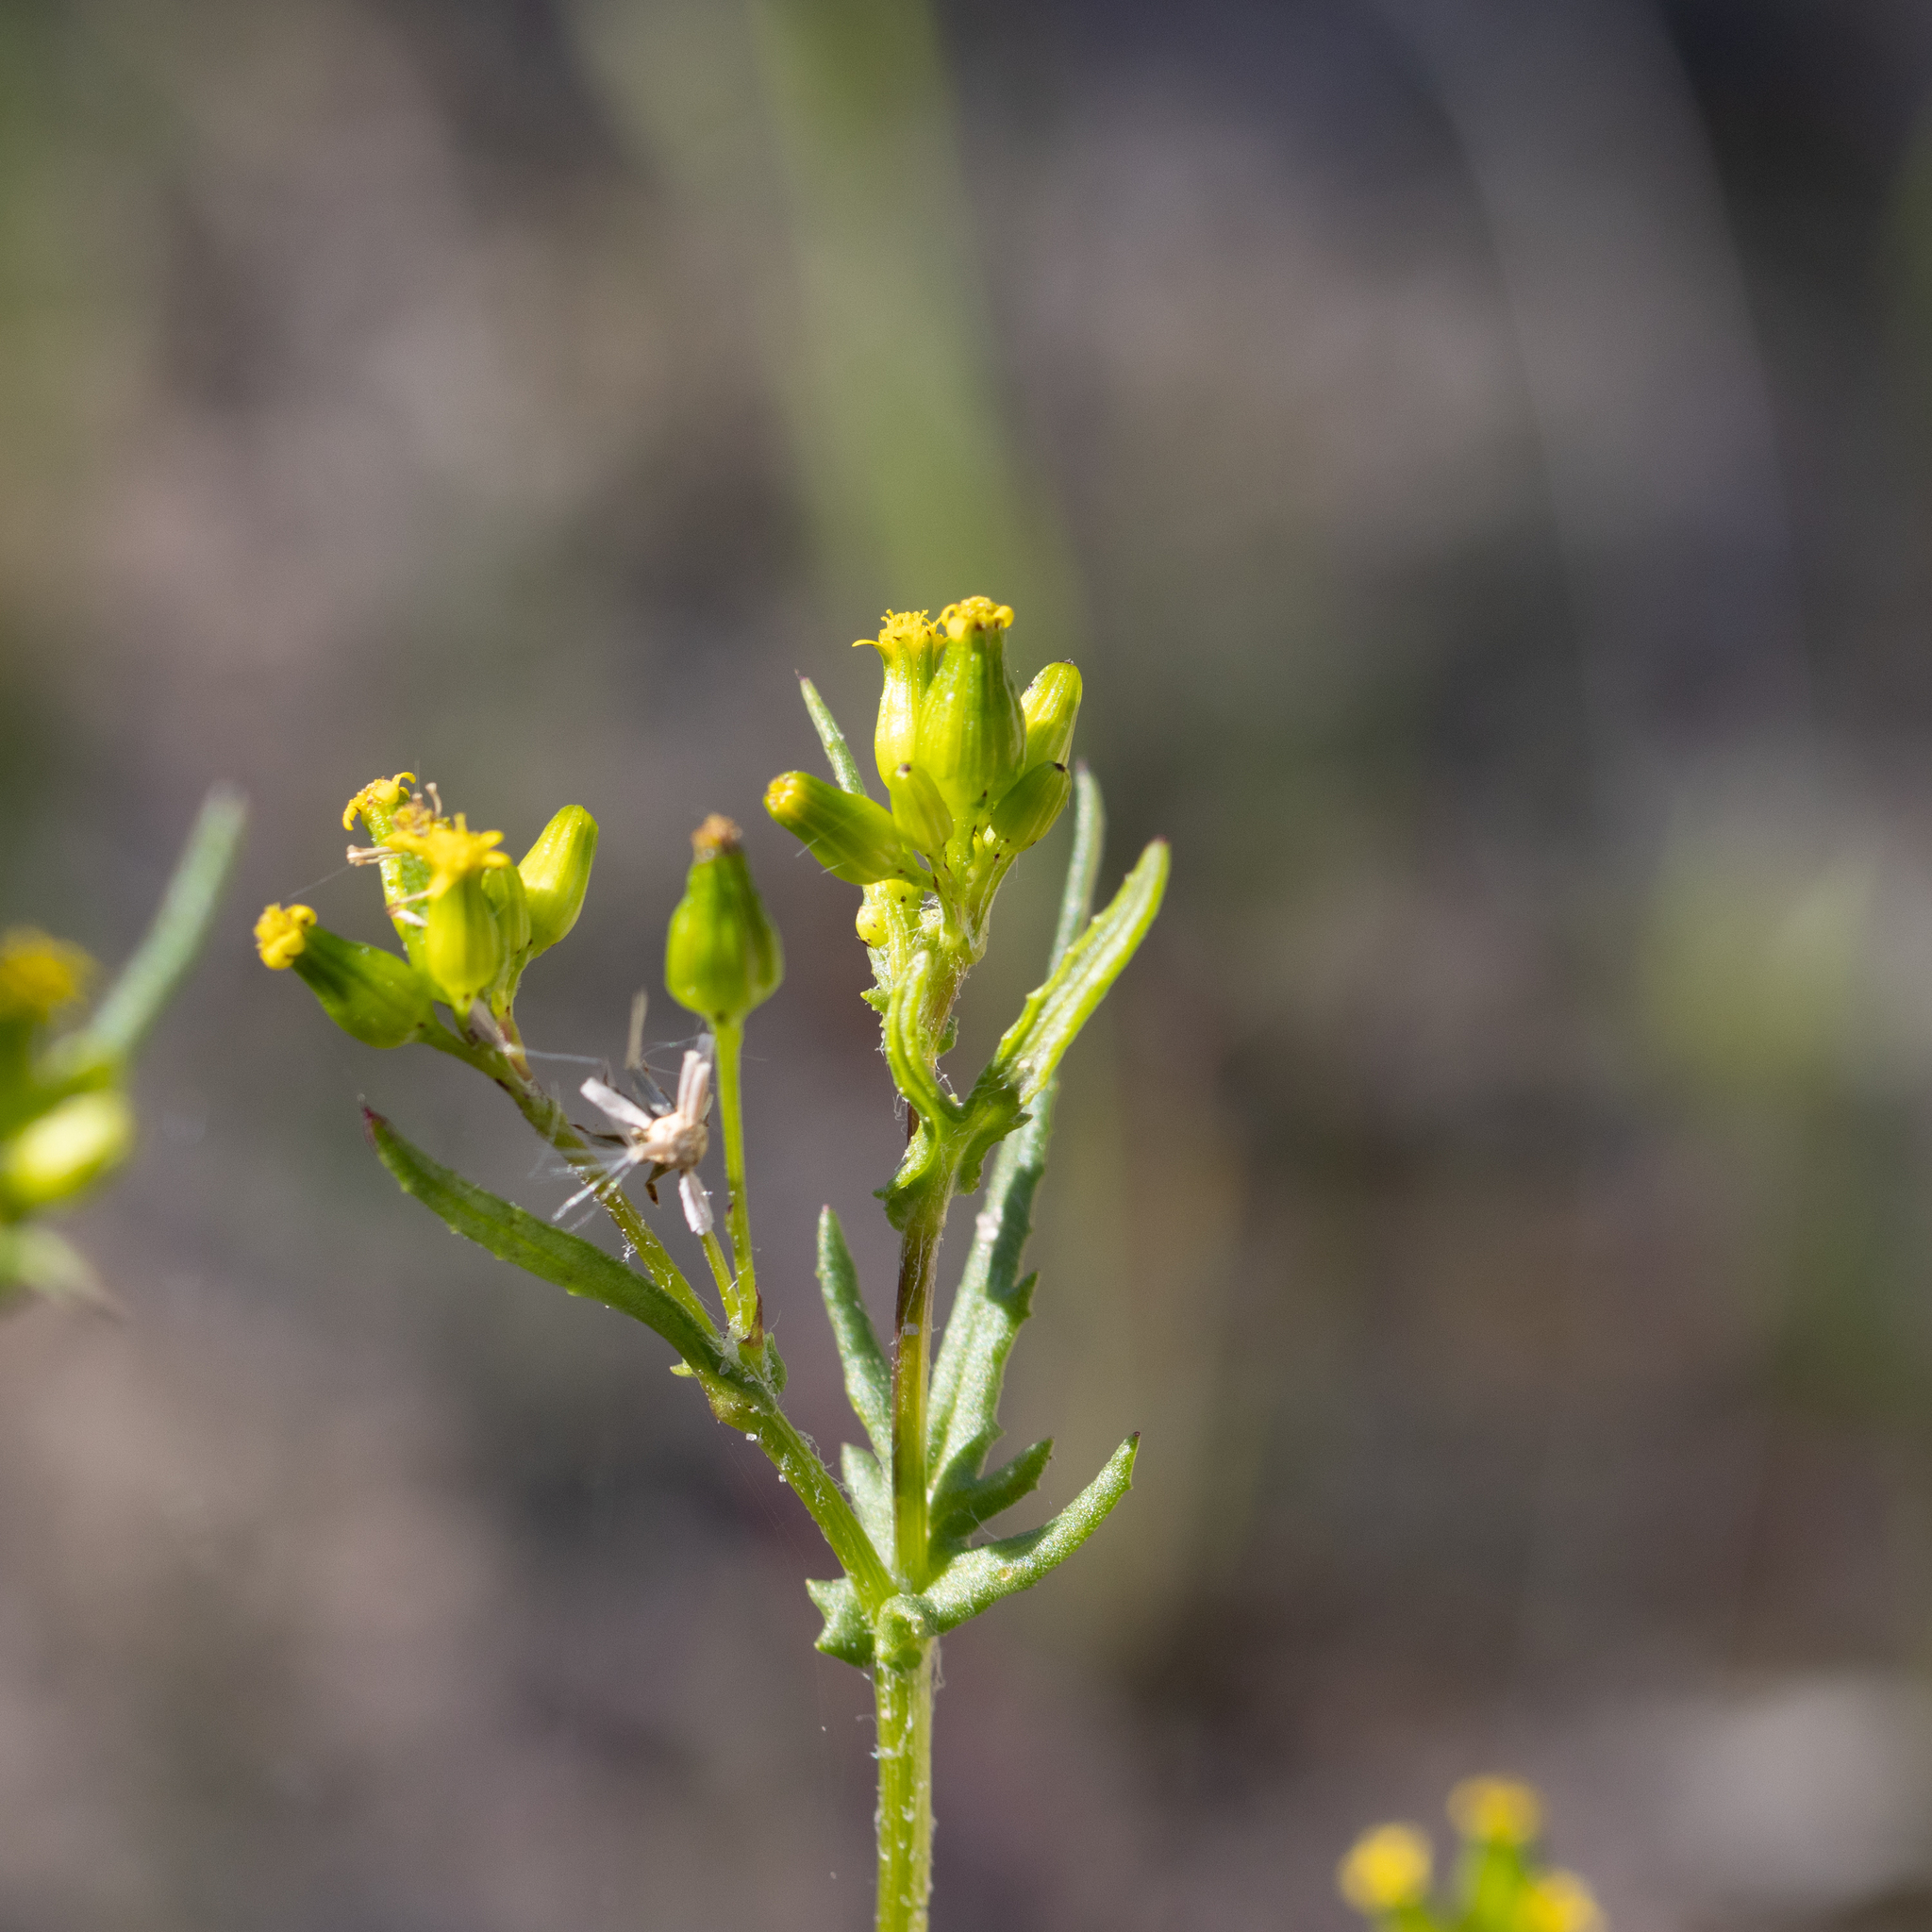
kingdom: Plantae
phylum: Tracheophyta
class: Magnoliopsida
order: Asterales
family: Asteraceae
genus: Senecio
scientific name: Senecio glossanthus
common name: Slender groundsel
